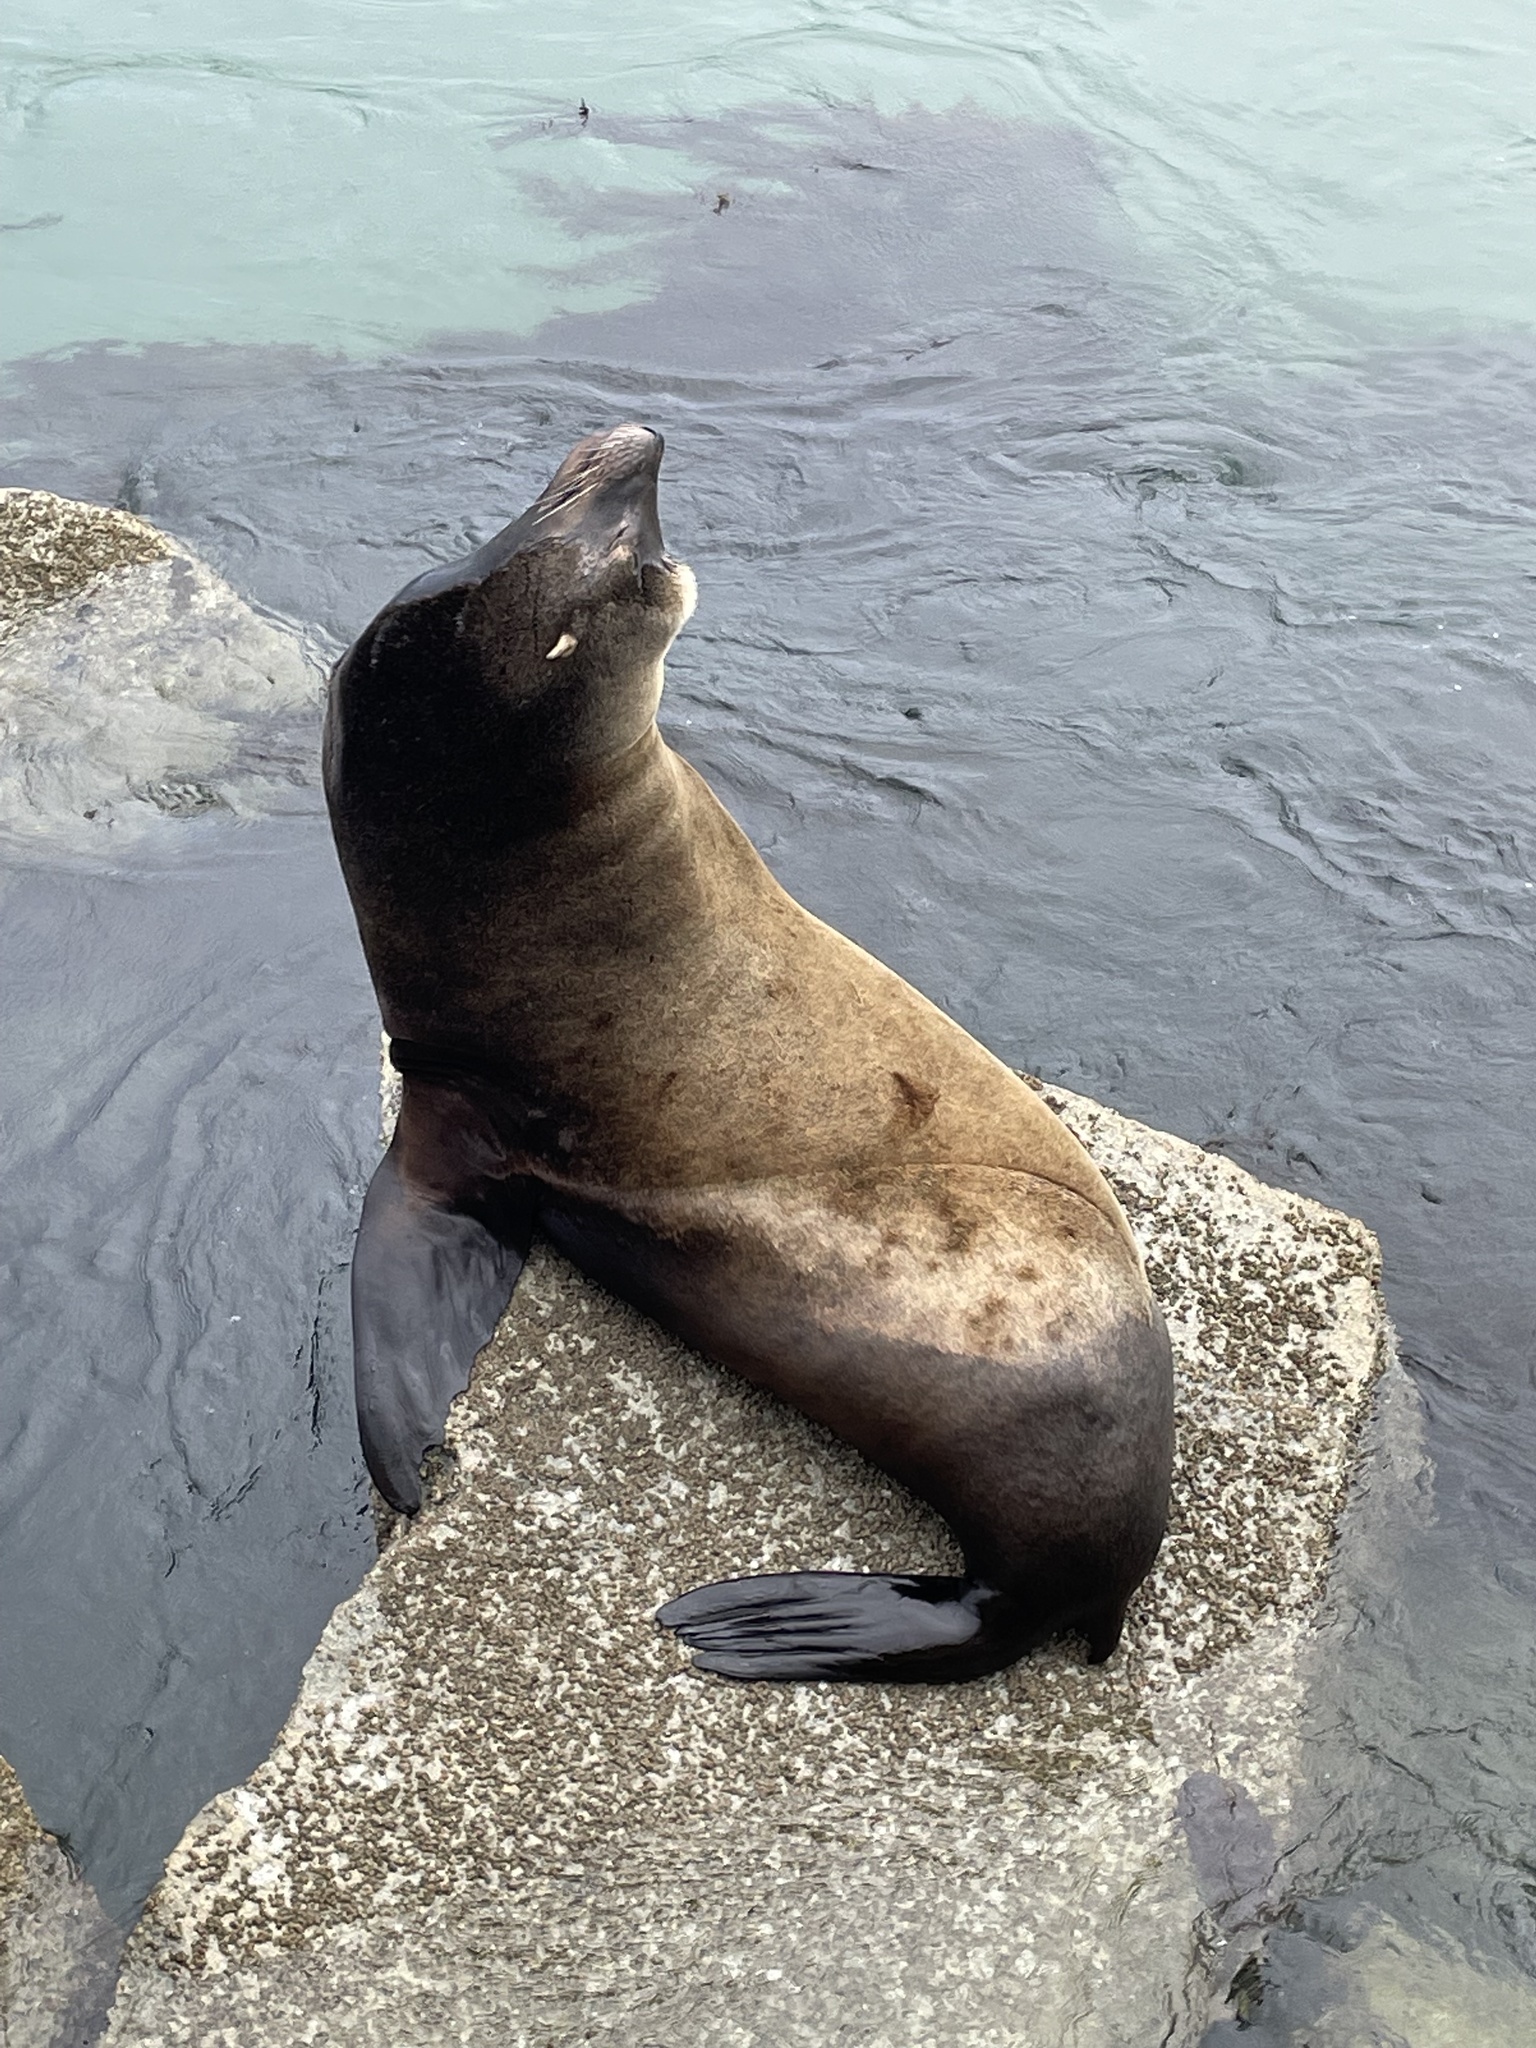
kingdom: Animalia
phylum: Chordata
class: Mammalia
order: Carnivora
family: Otariidae
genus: Zalophus
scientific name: Zalophus californianus
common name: California sea lion
